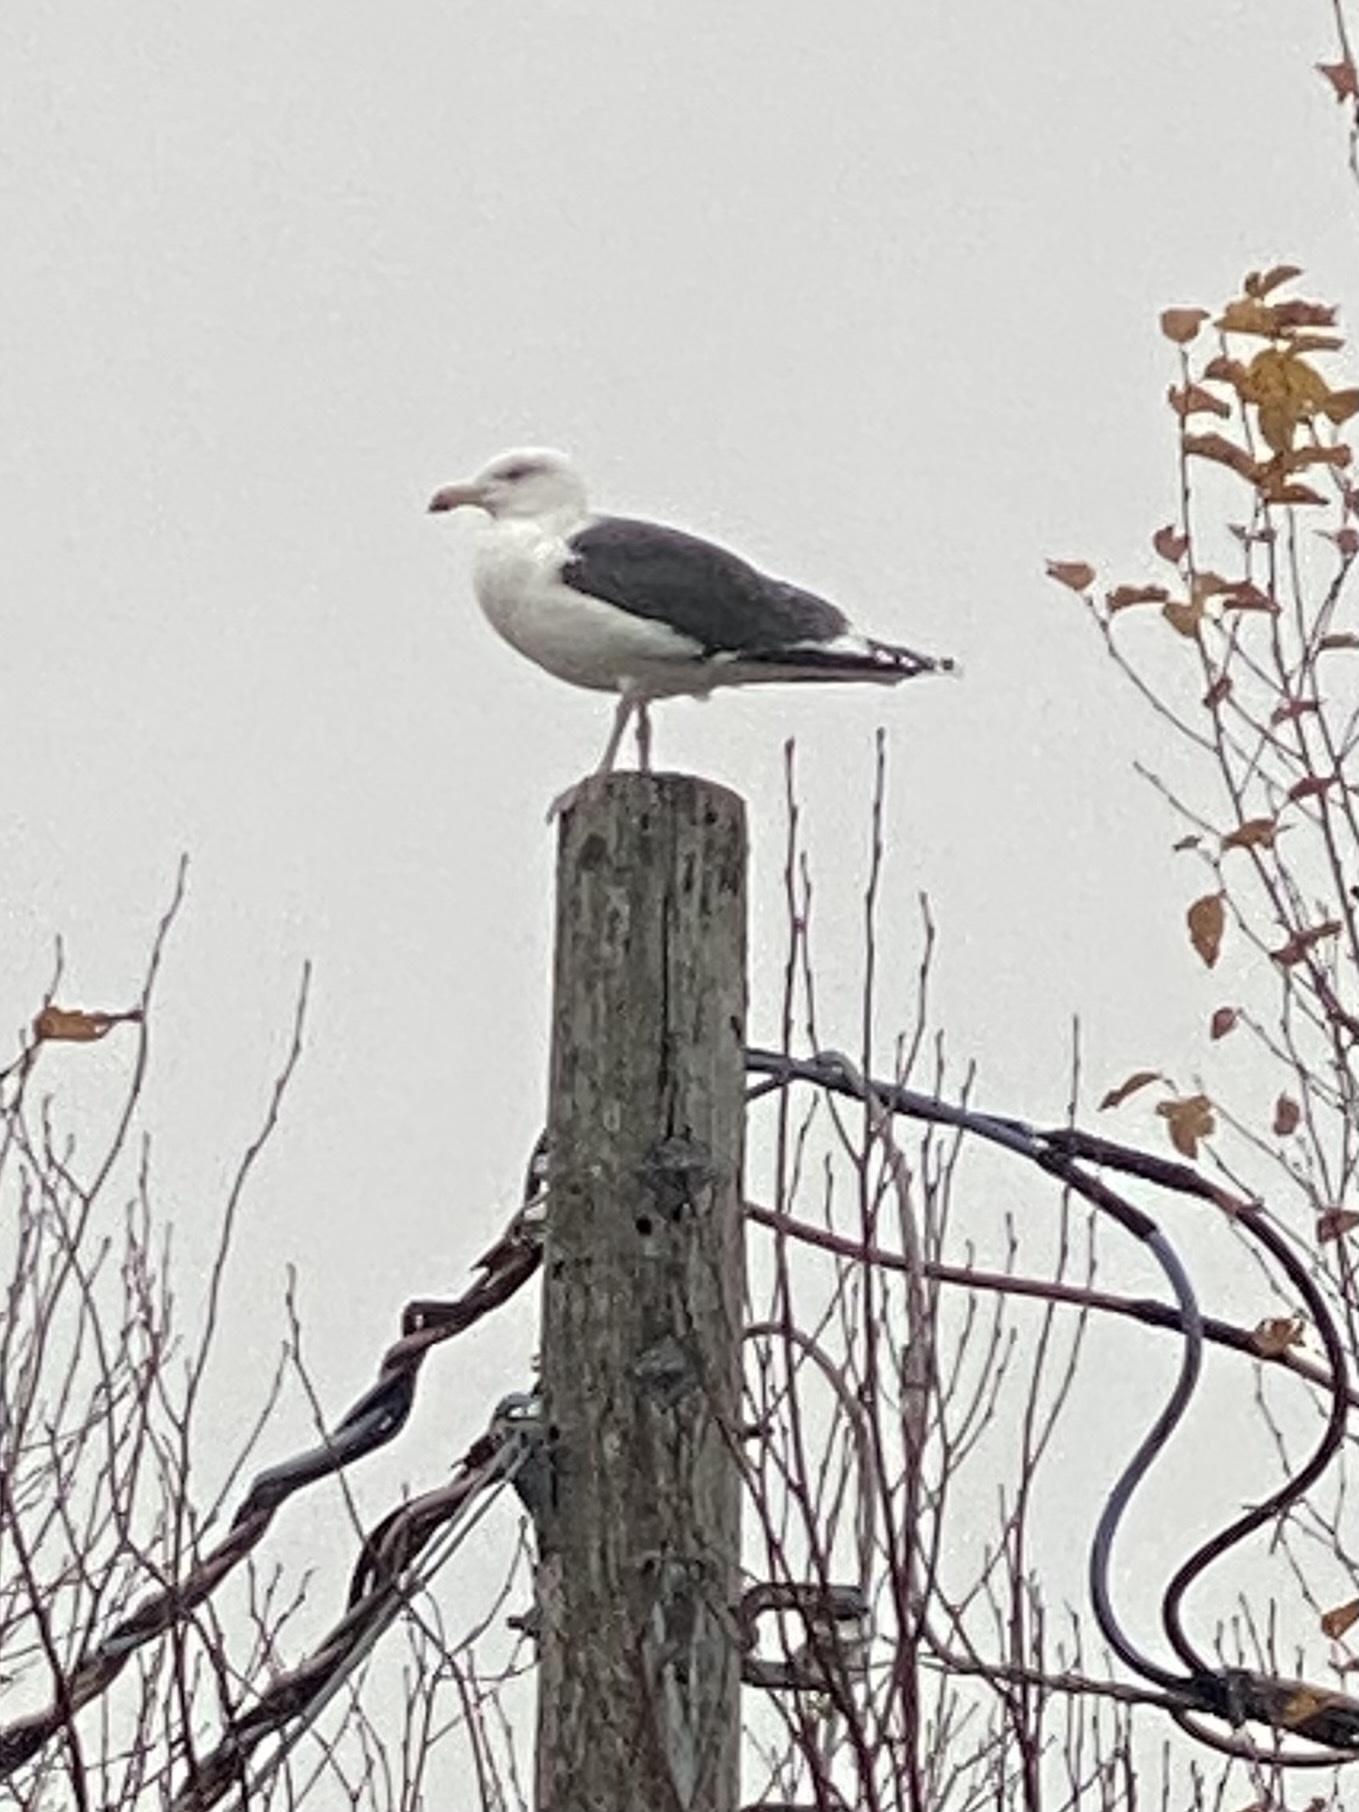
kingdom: Animalia
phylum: Chordata
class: Aves
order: Charadriiformes
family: Laridae
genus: Larus
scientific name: Larus marinus
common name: Great black-backed gull
